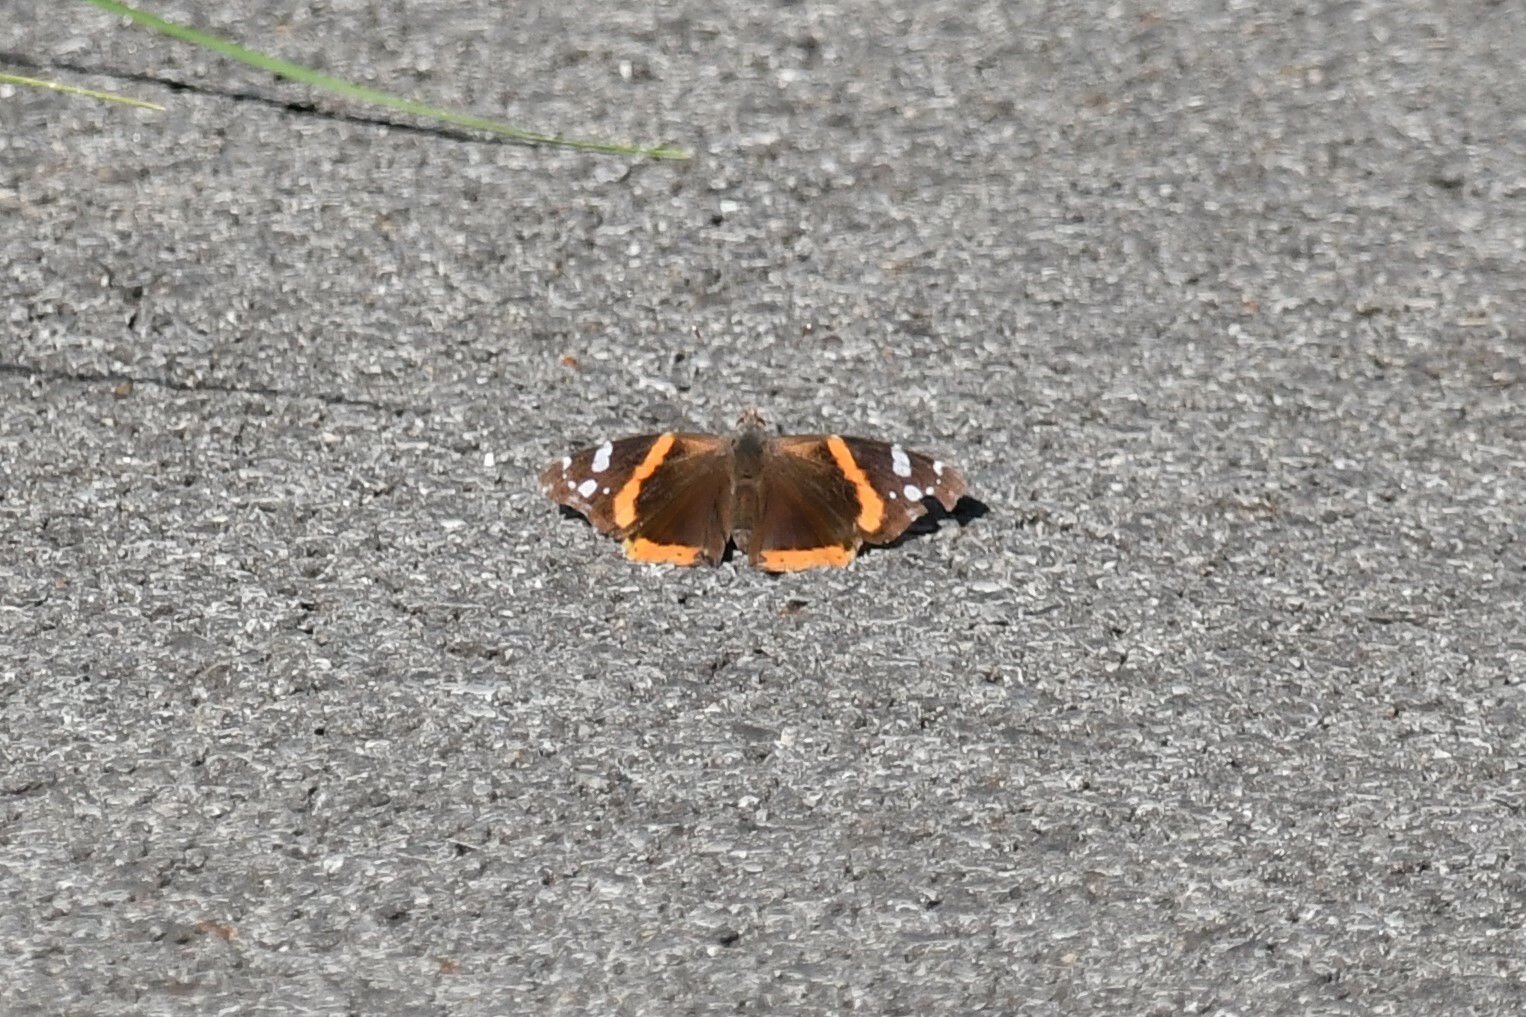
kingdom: Animalia
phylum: Arthropoda
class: Insecta
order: Lepidoptera
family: Nymphalidae
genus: Vanessa
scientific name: Vanessa atalanta
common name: Red admiral
